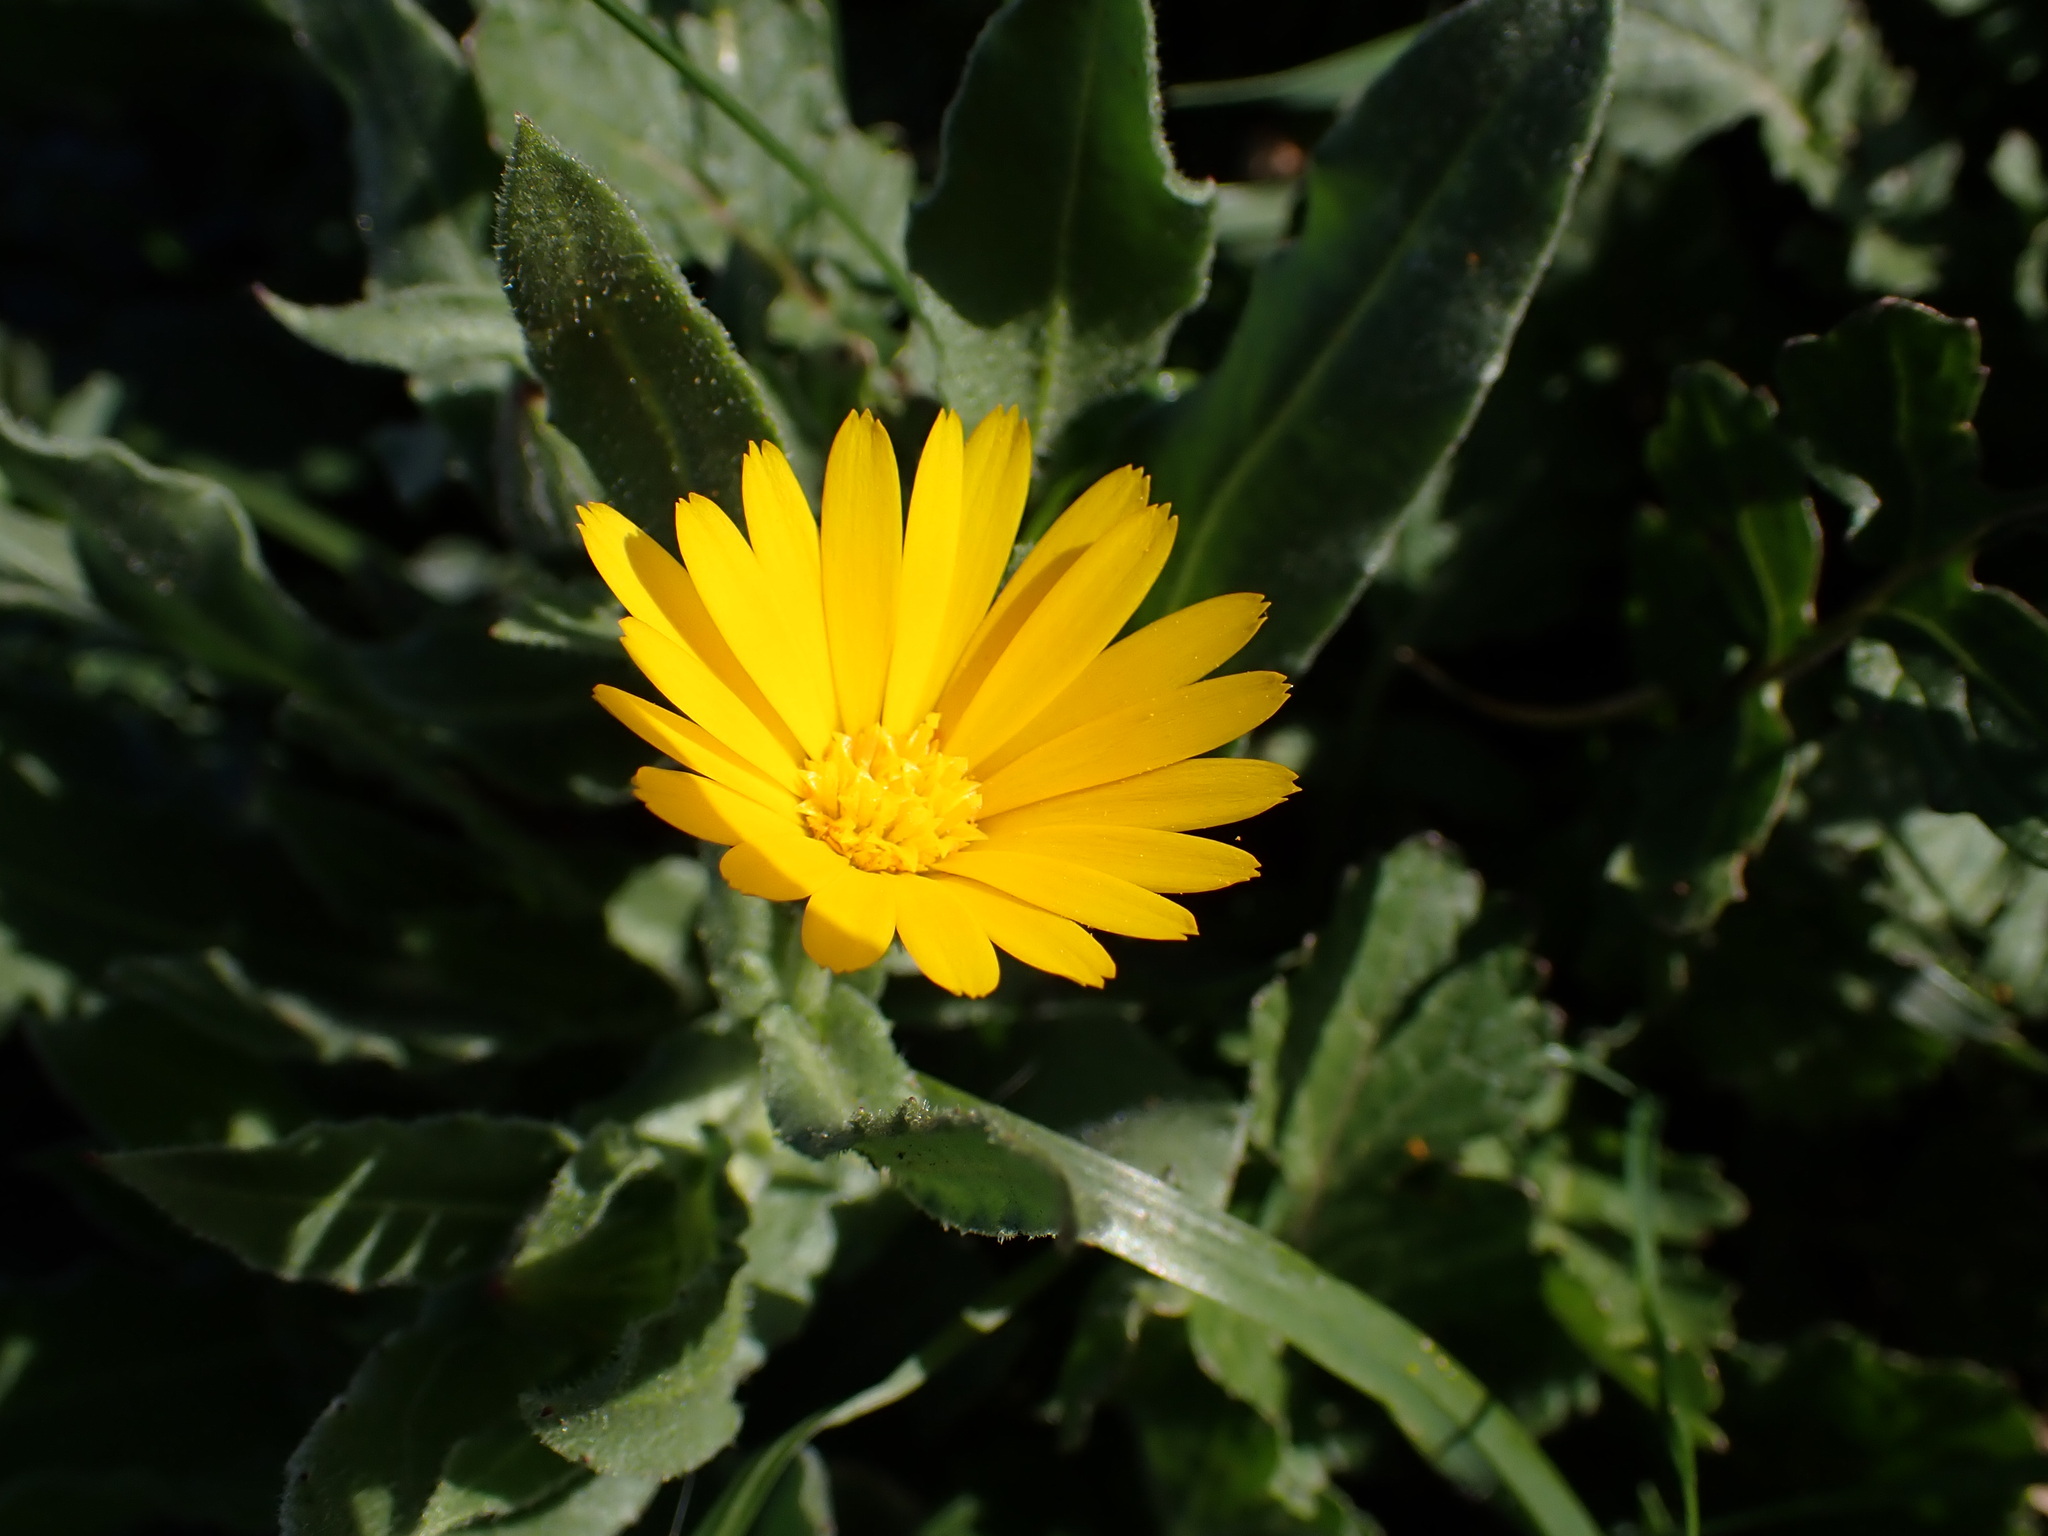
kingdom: Plantae
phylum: Tracheophyta
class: Magnoliopsida
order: Asterales
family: Asteraceae
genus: Calendula
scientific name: Calendula arvensis
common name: Field marigold
